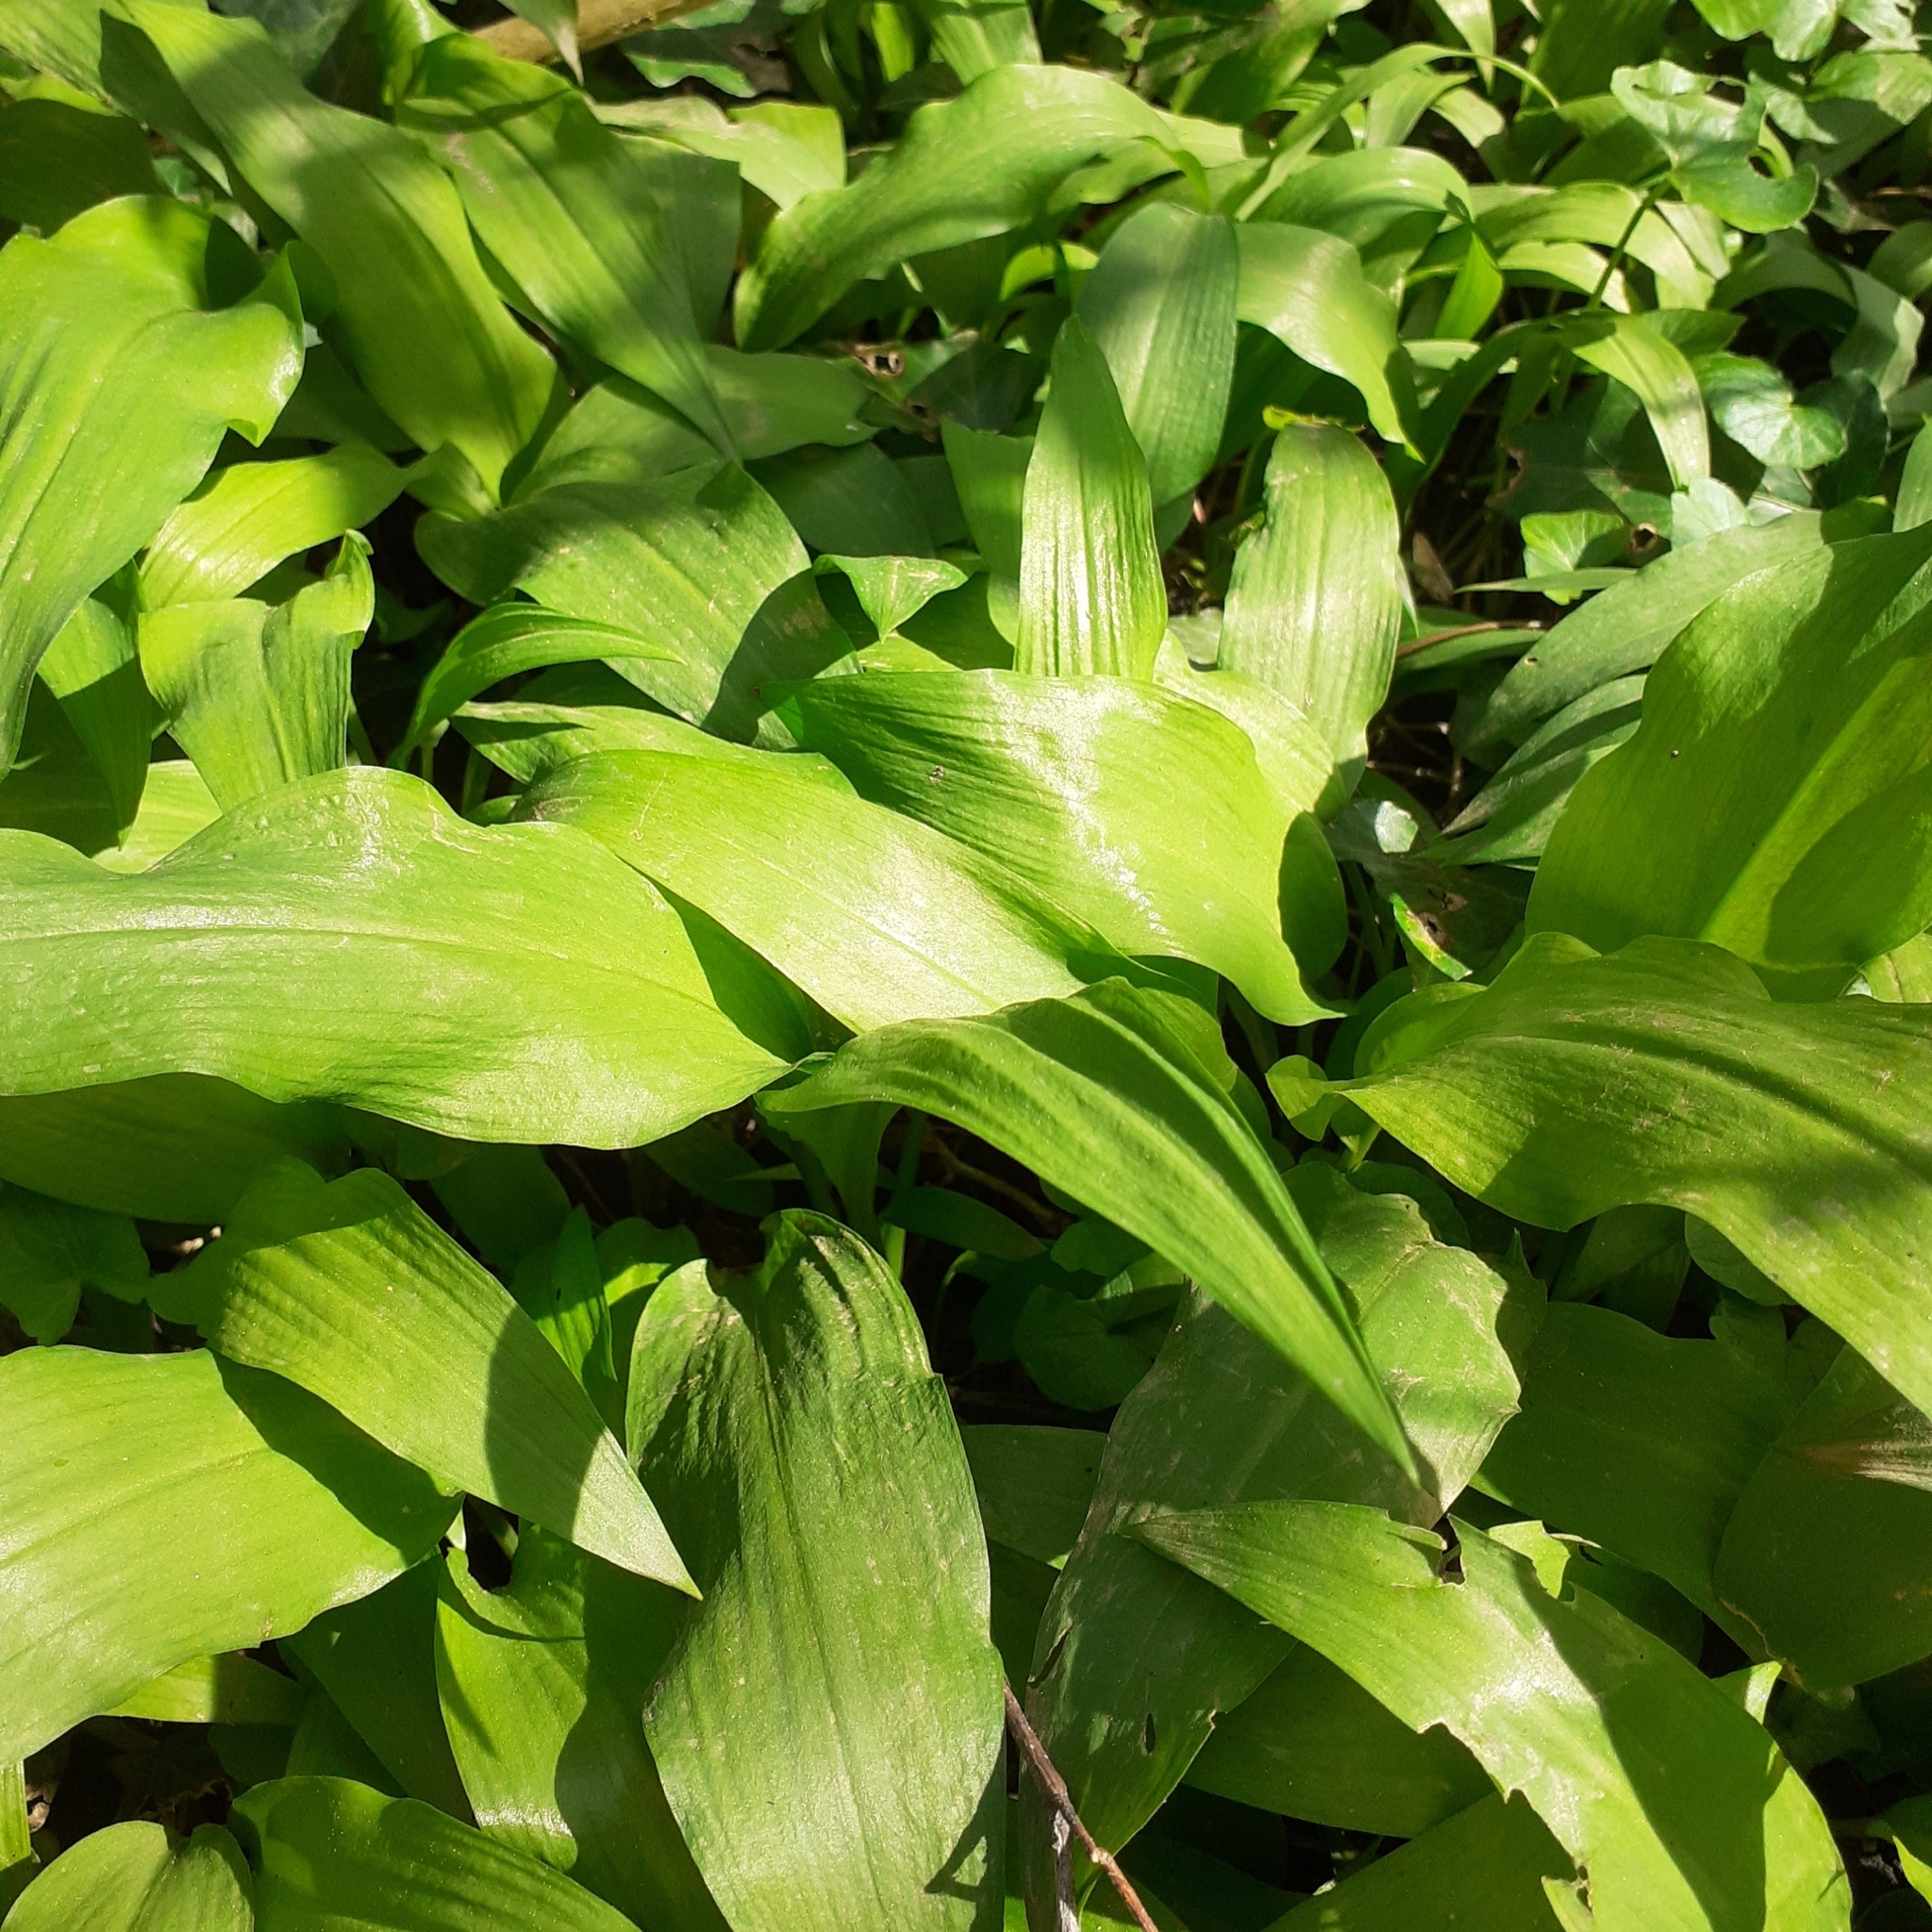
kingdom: Plantae
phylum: Tracheophyta
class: Liliopsida
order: Asparagales
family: Amaryllidaceae
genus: Allium
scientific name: Allium ursinum
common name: Ramsons
